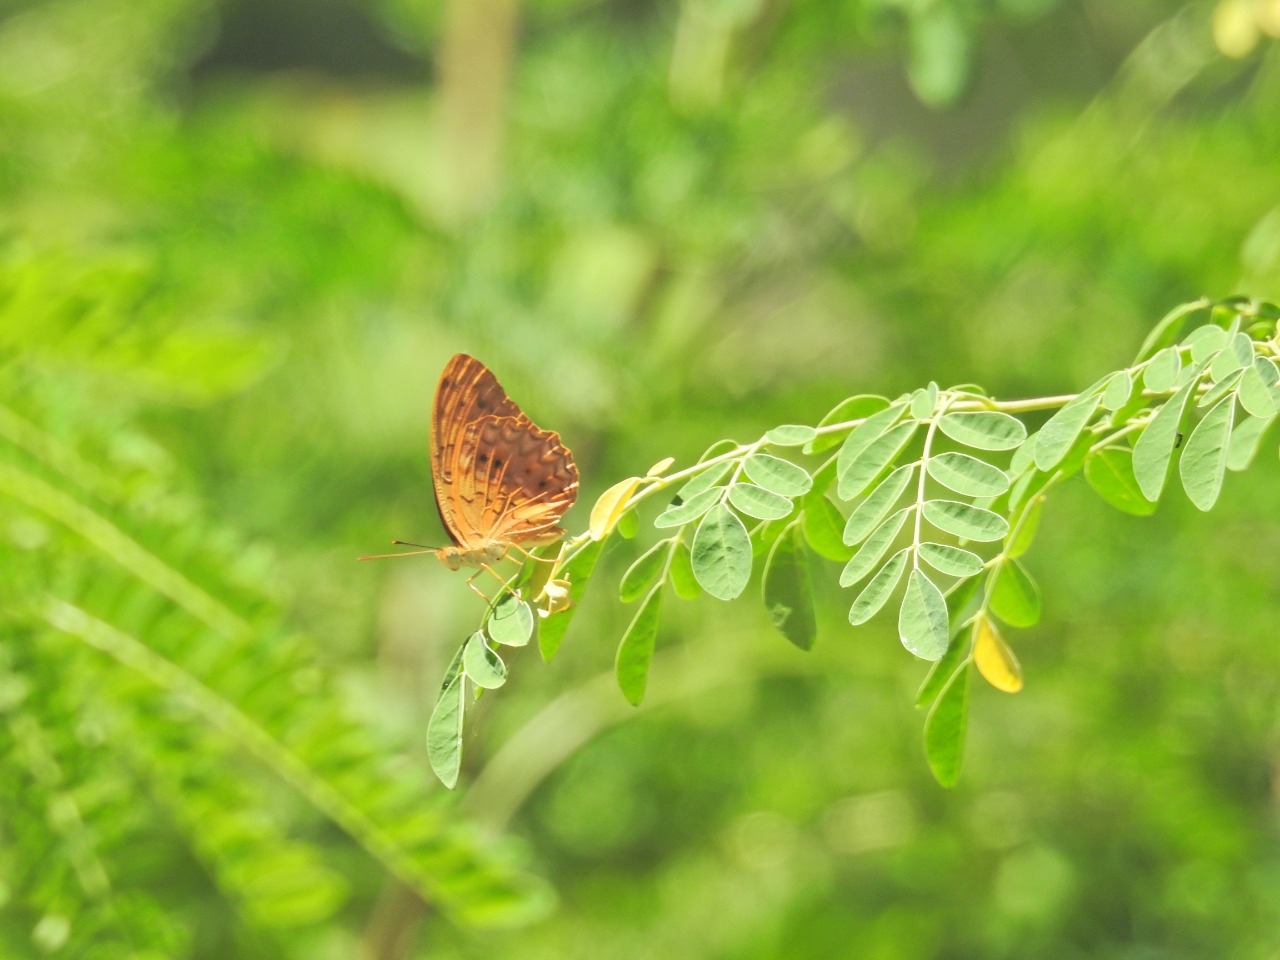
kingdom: Animalia
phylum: Arthropoda
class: Insecta
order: Lepidoptera
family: Nymphalidae
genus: Phalanta
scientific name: Phalanta phalantha
